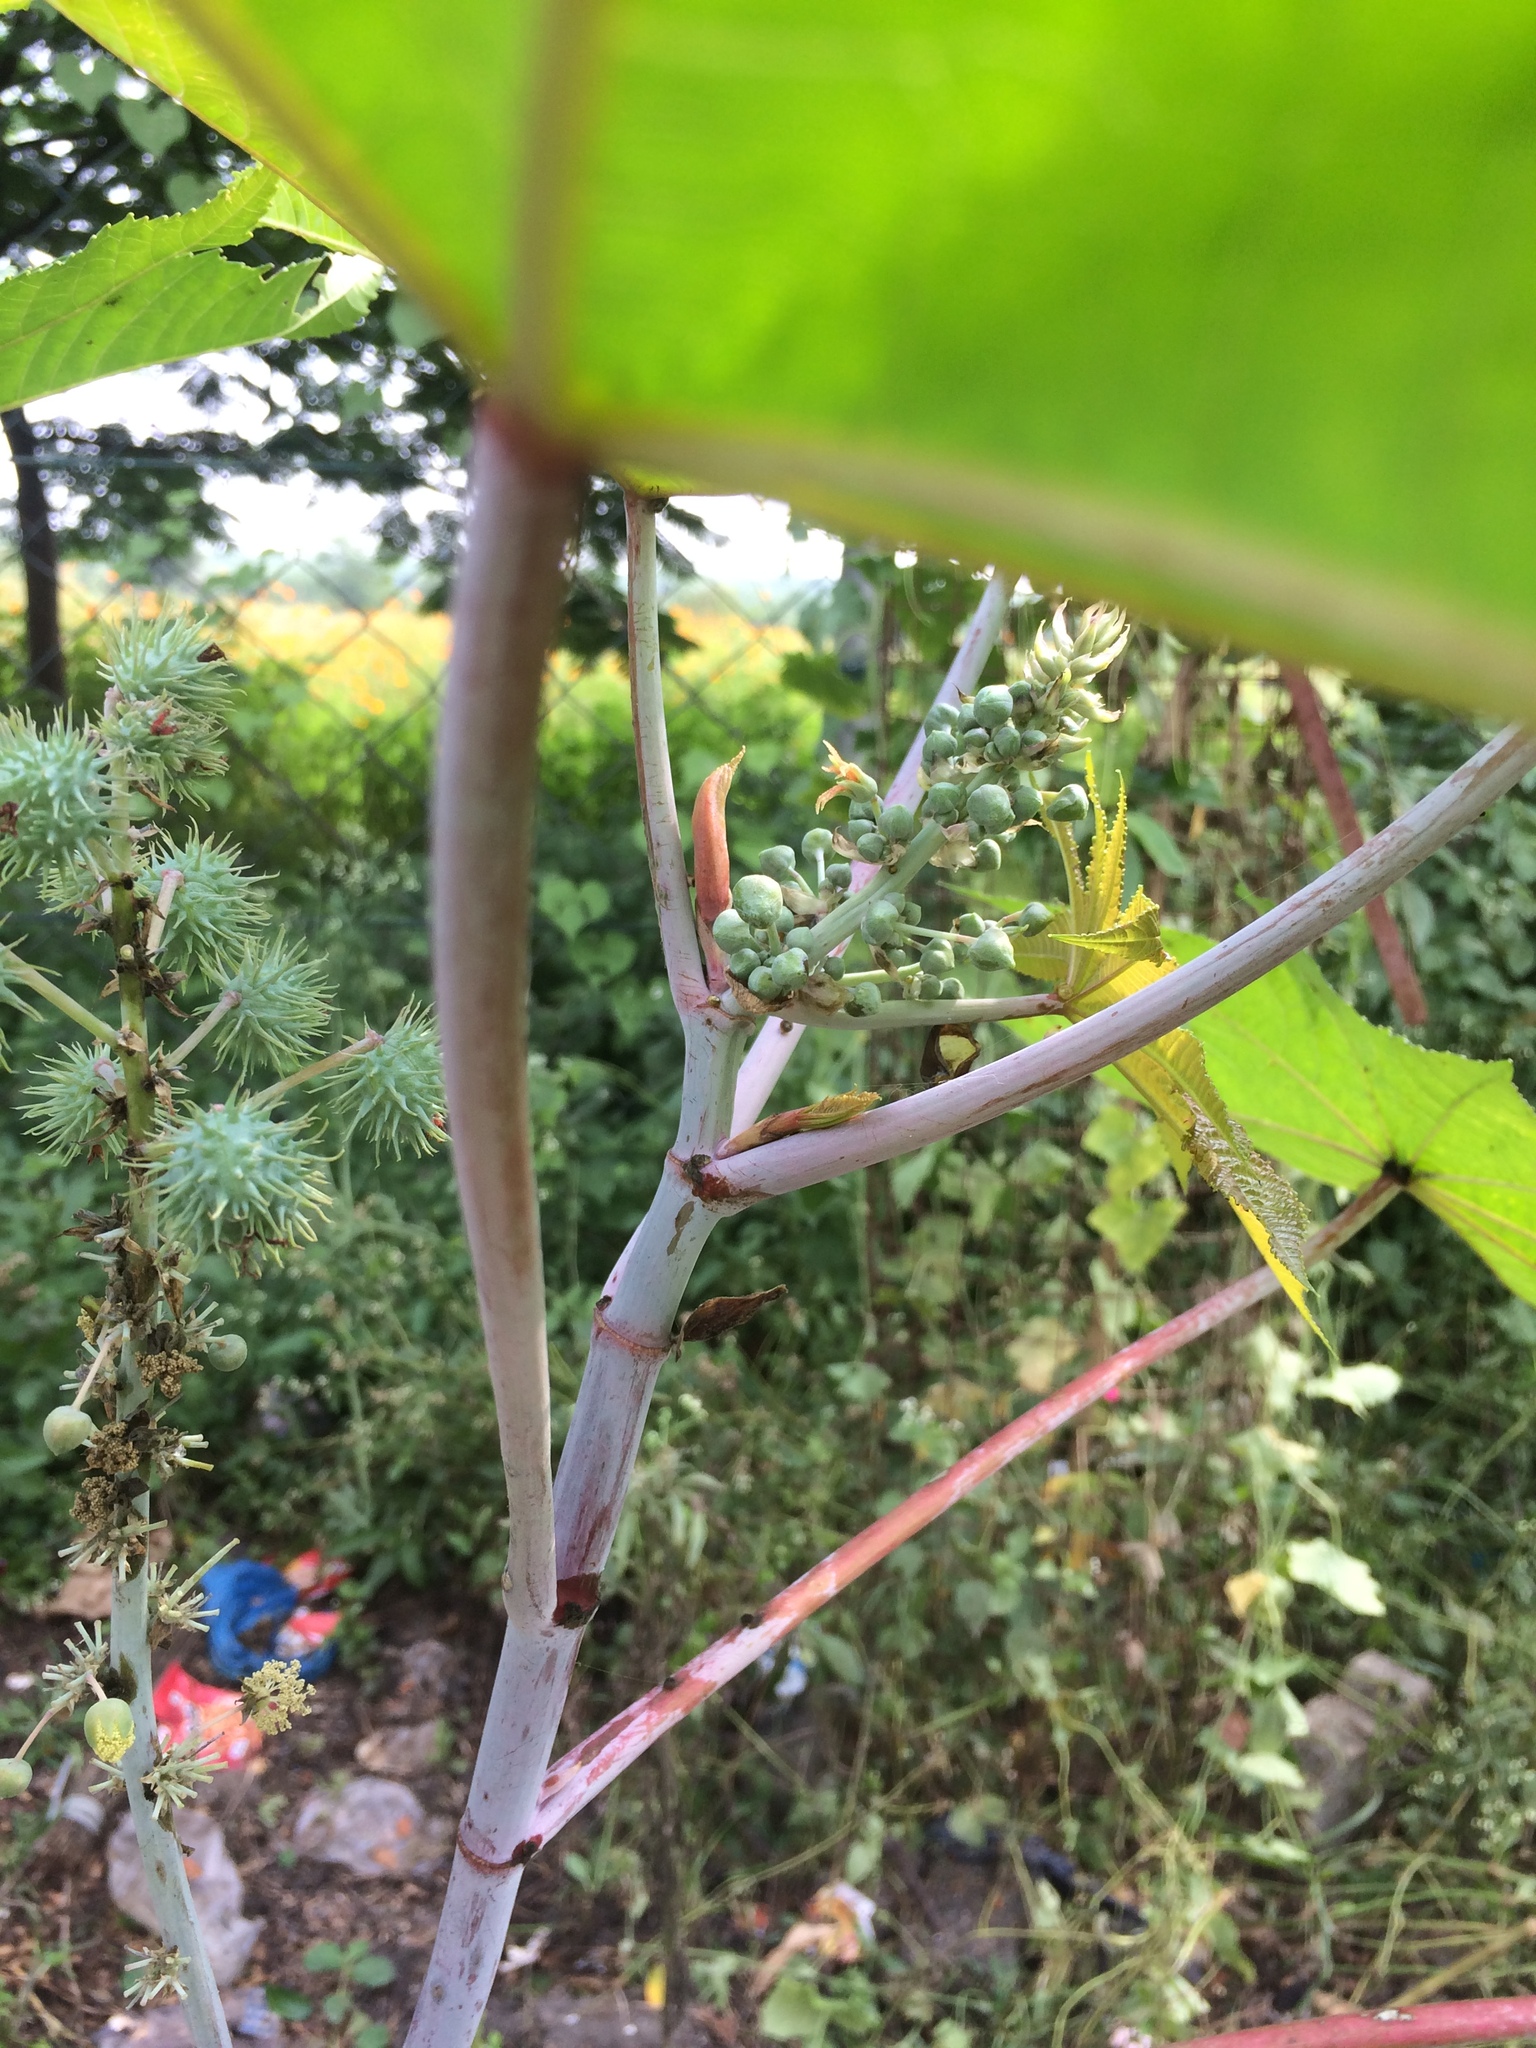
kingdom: Plantae
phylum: Tracheophyta
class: Magnoliopsida
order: Malpighiales
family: Euphorbiaceae
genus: Ricinus
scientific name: Ricinus communis
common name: Castor-oil-plant
